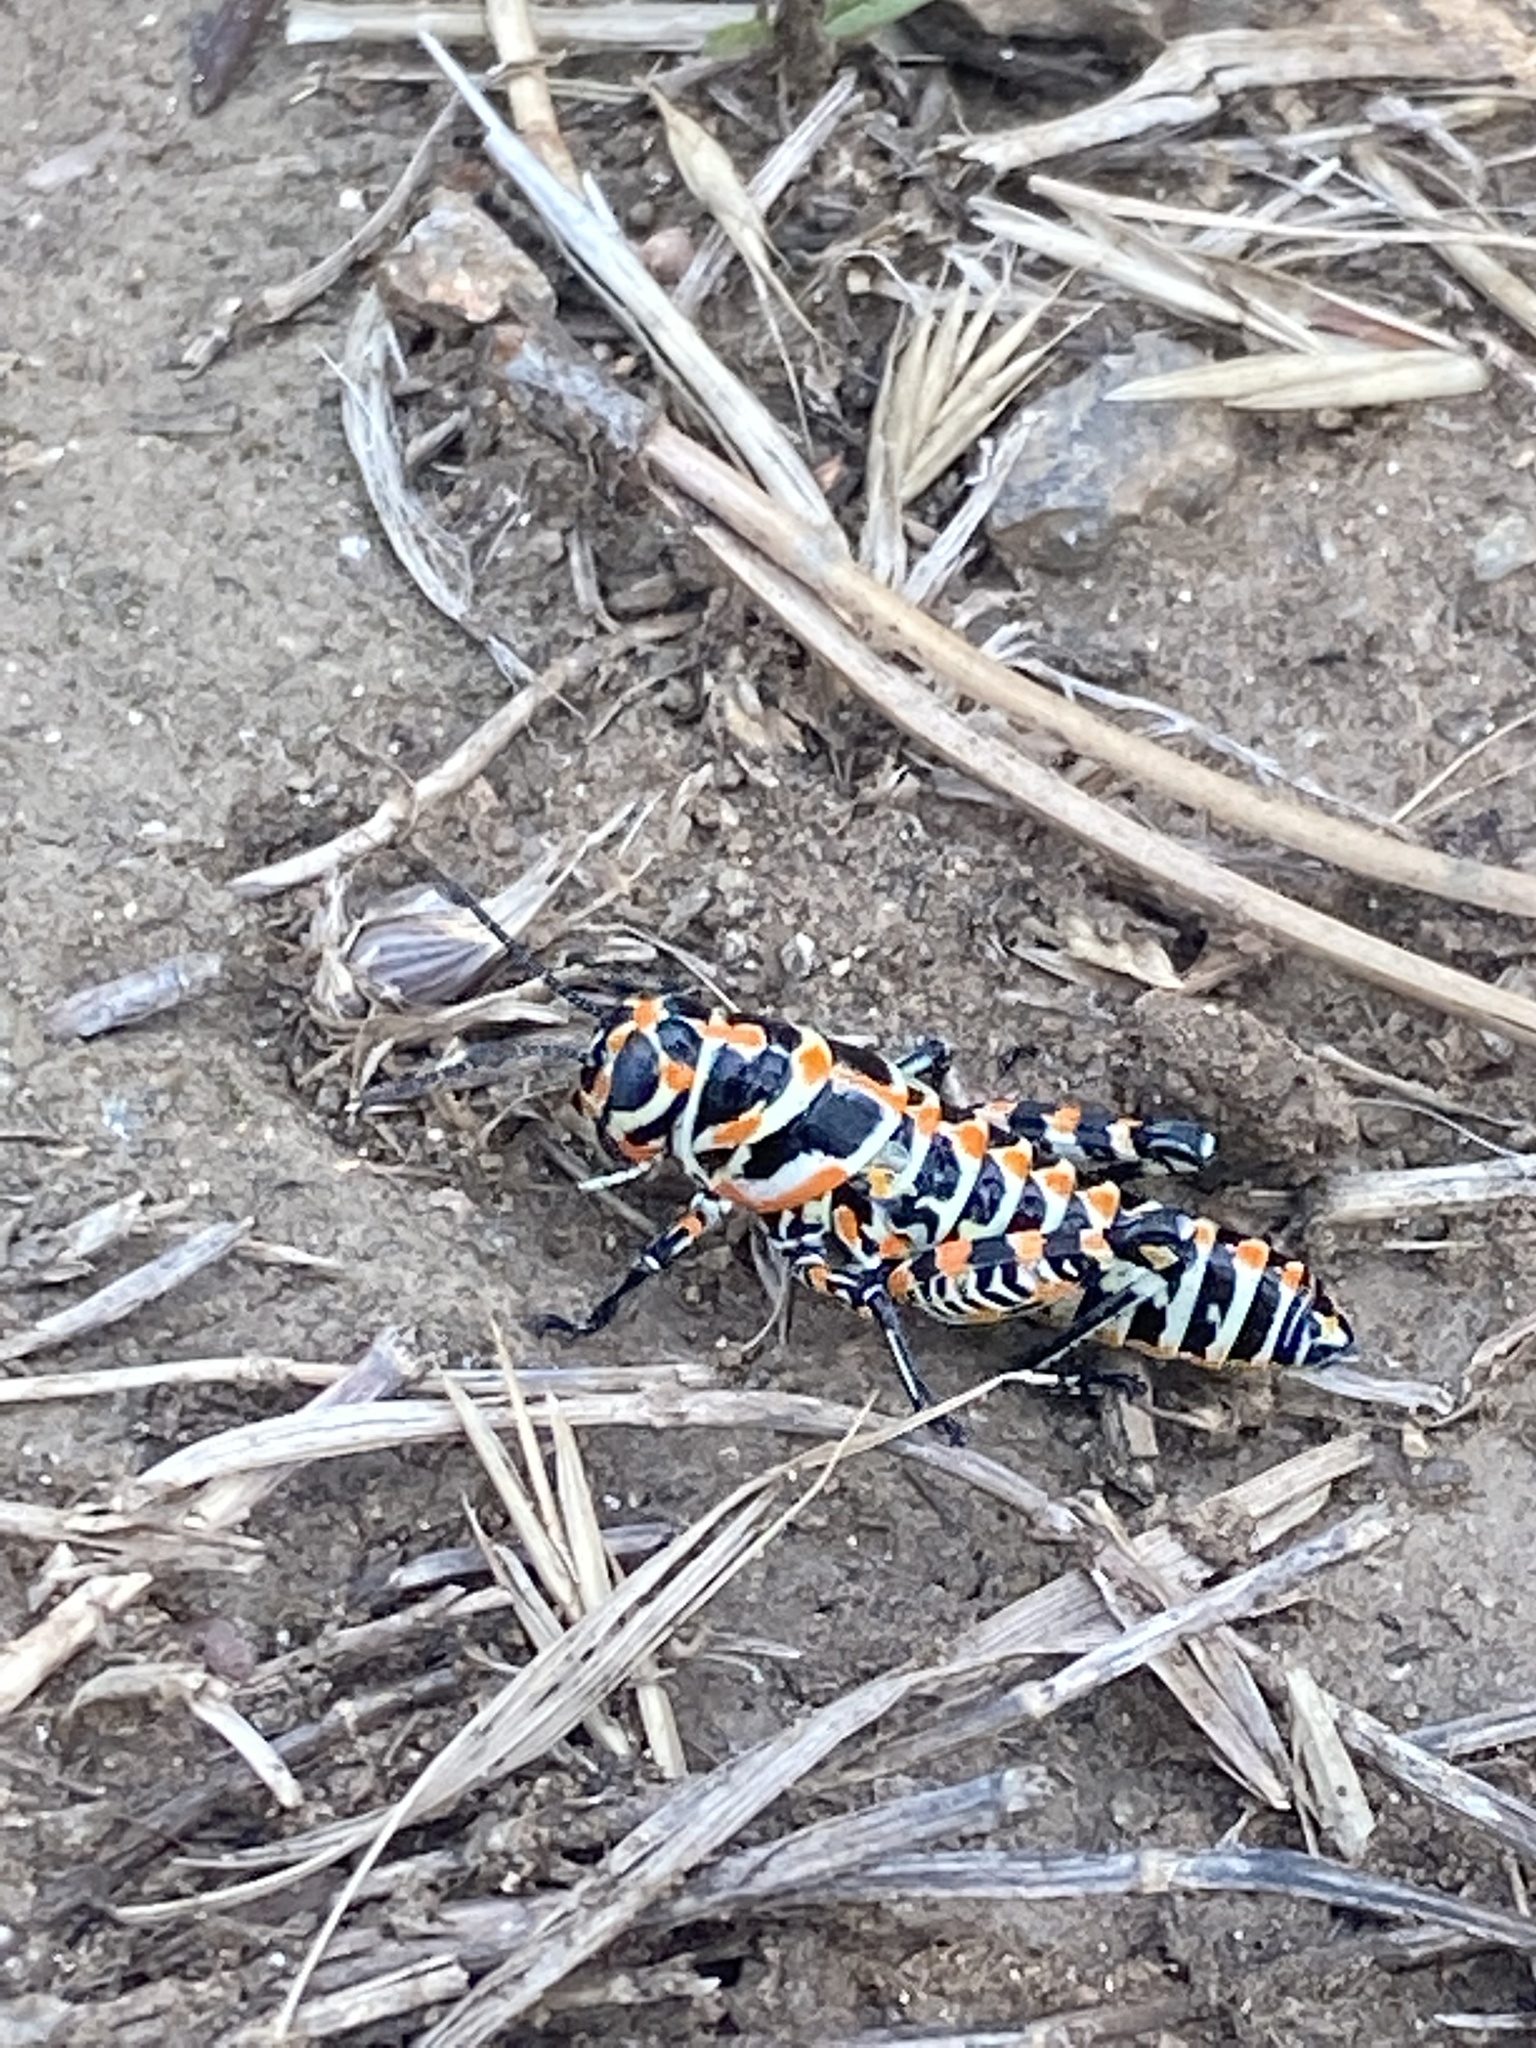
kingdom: Animalia
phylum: Arthropoda
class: Insecta
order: Orthoptera
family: Acrididae
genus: Dactylotum
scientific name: Dactylotum bicolor
